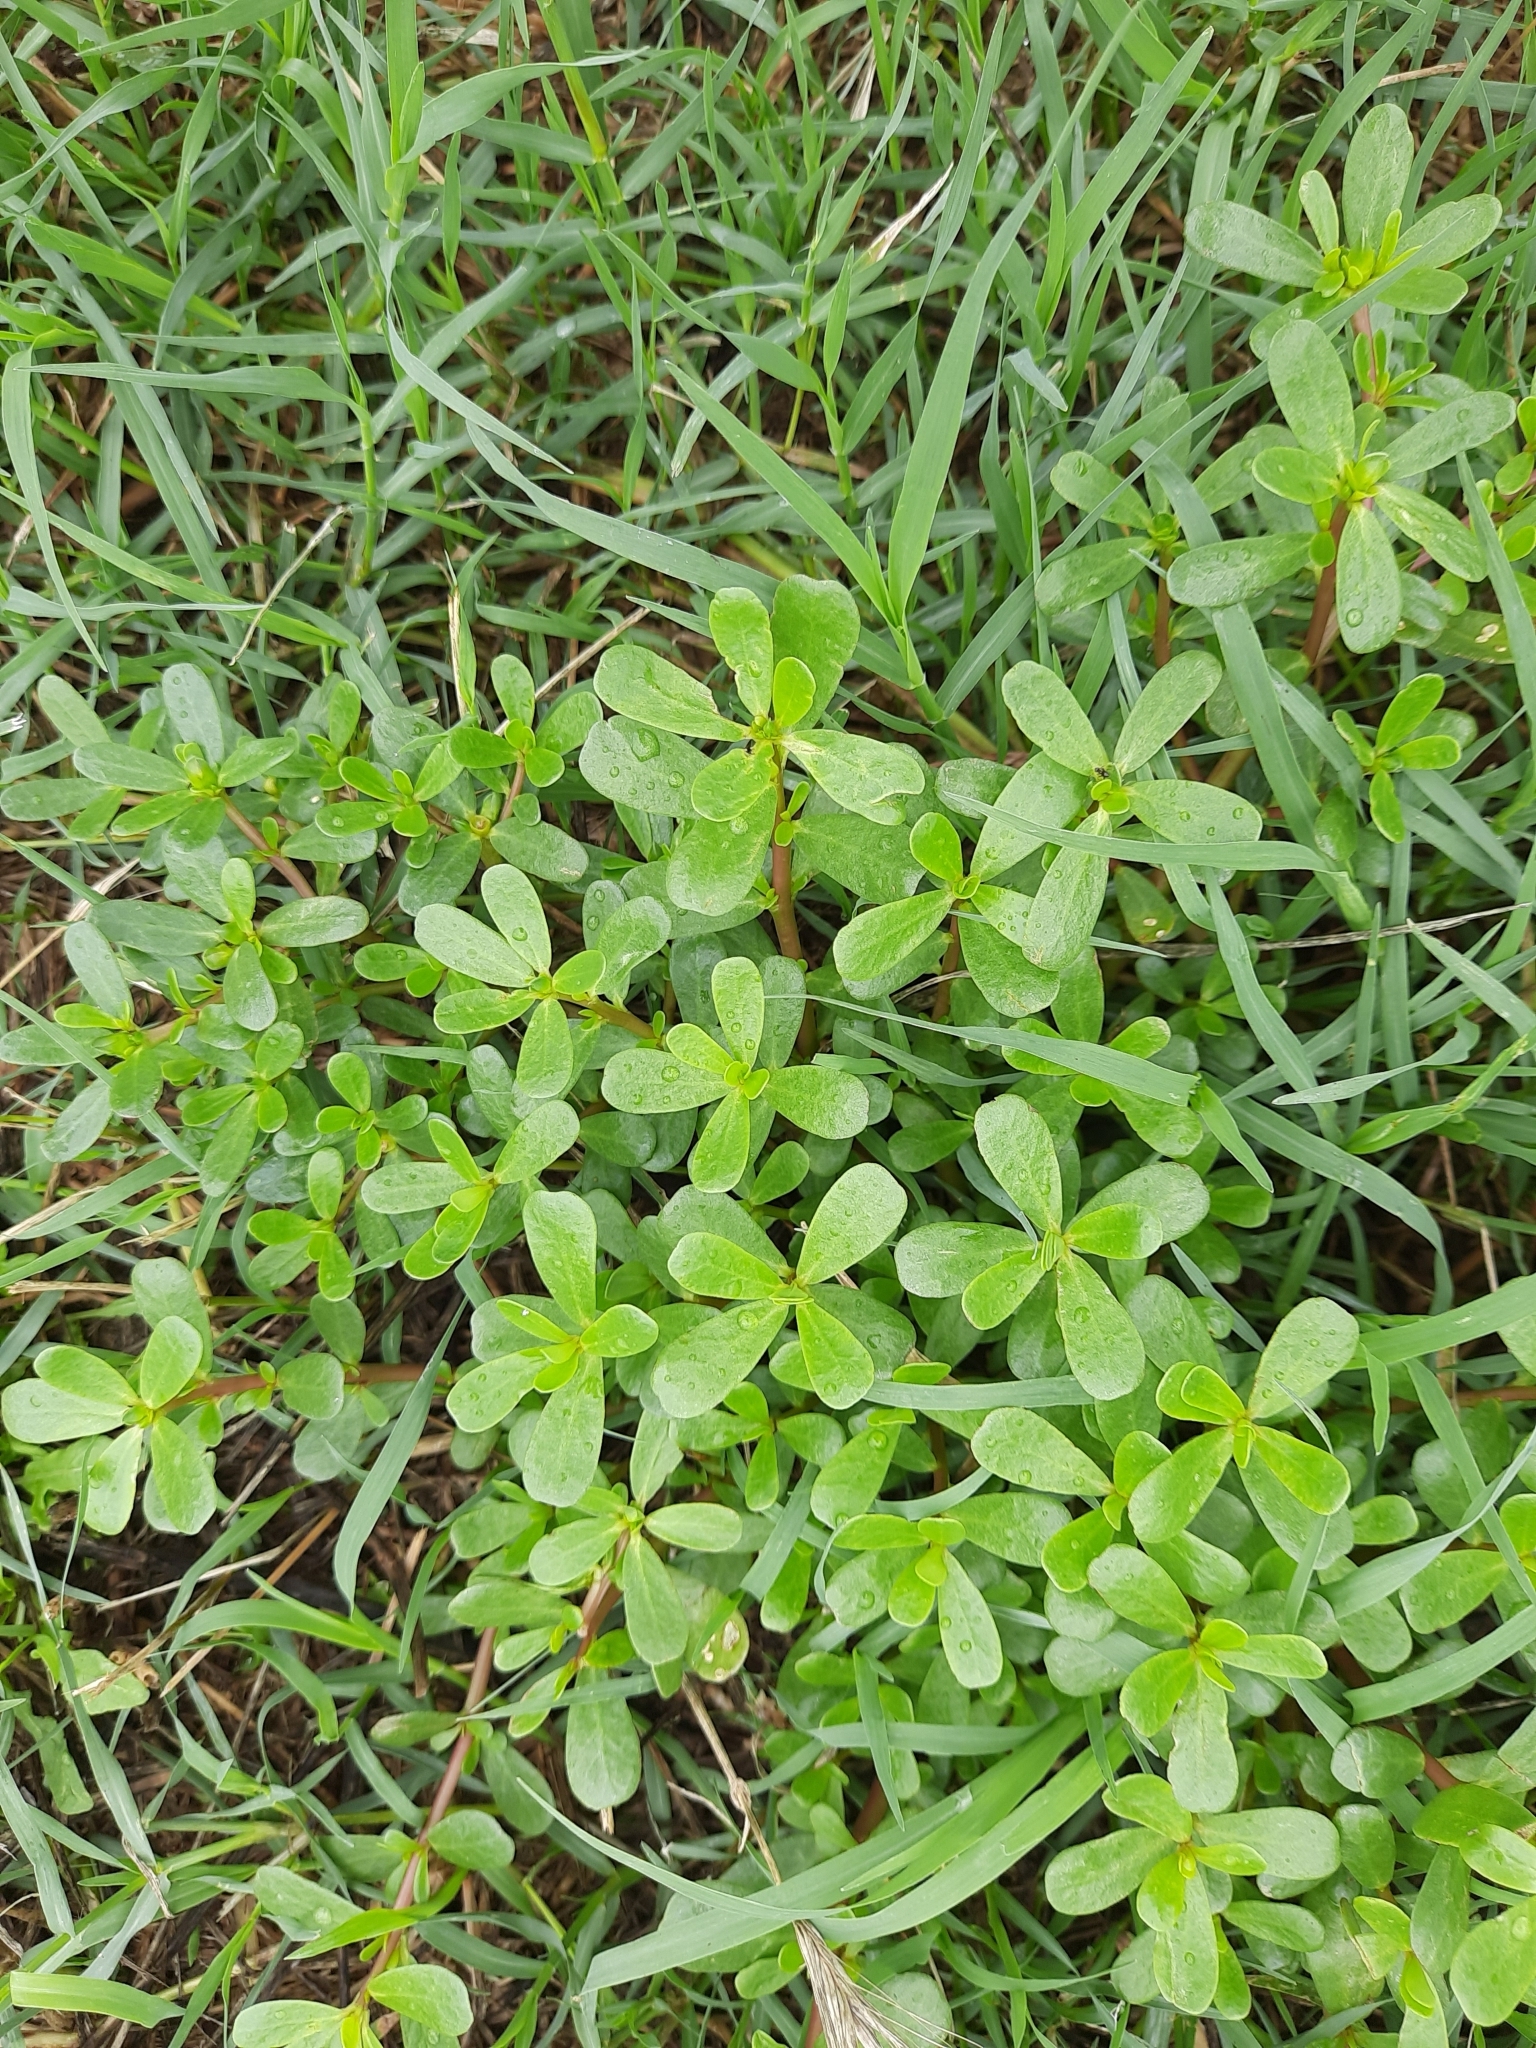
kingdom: Plantae
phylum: Tracheophyta
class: Magnoliopsida
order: Caryophyllales
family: Portulacaceae
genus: Portulaca
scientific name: Portulaca oleracea
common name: Common purslane
